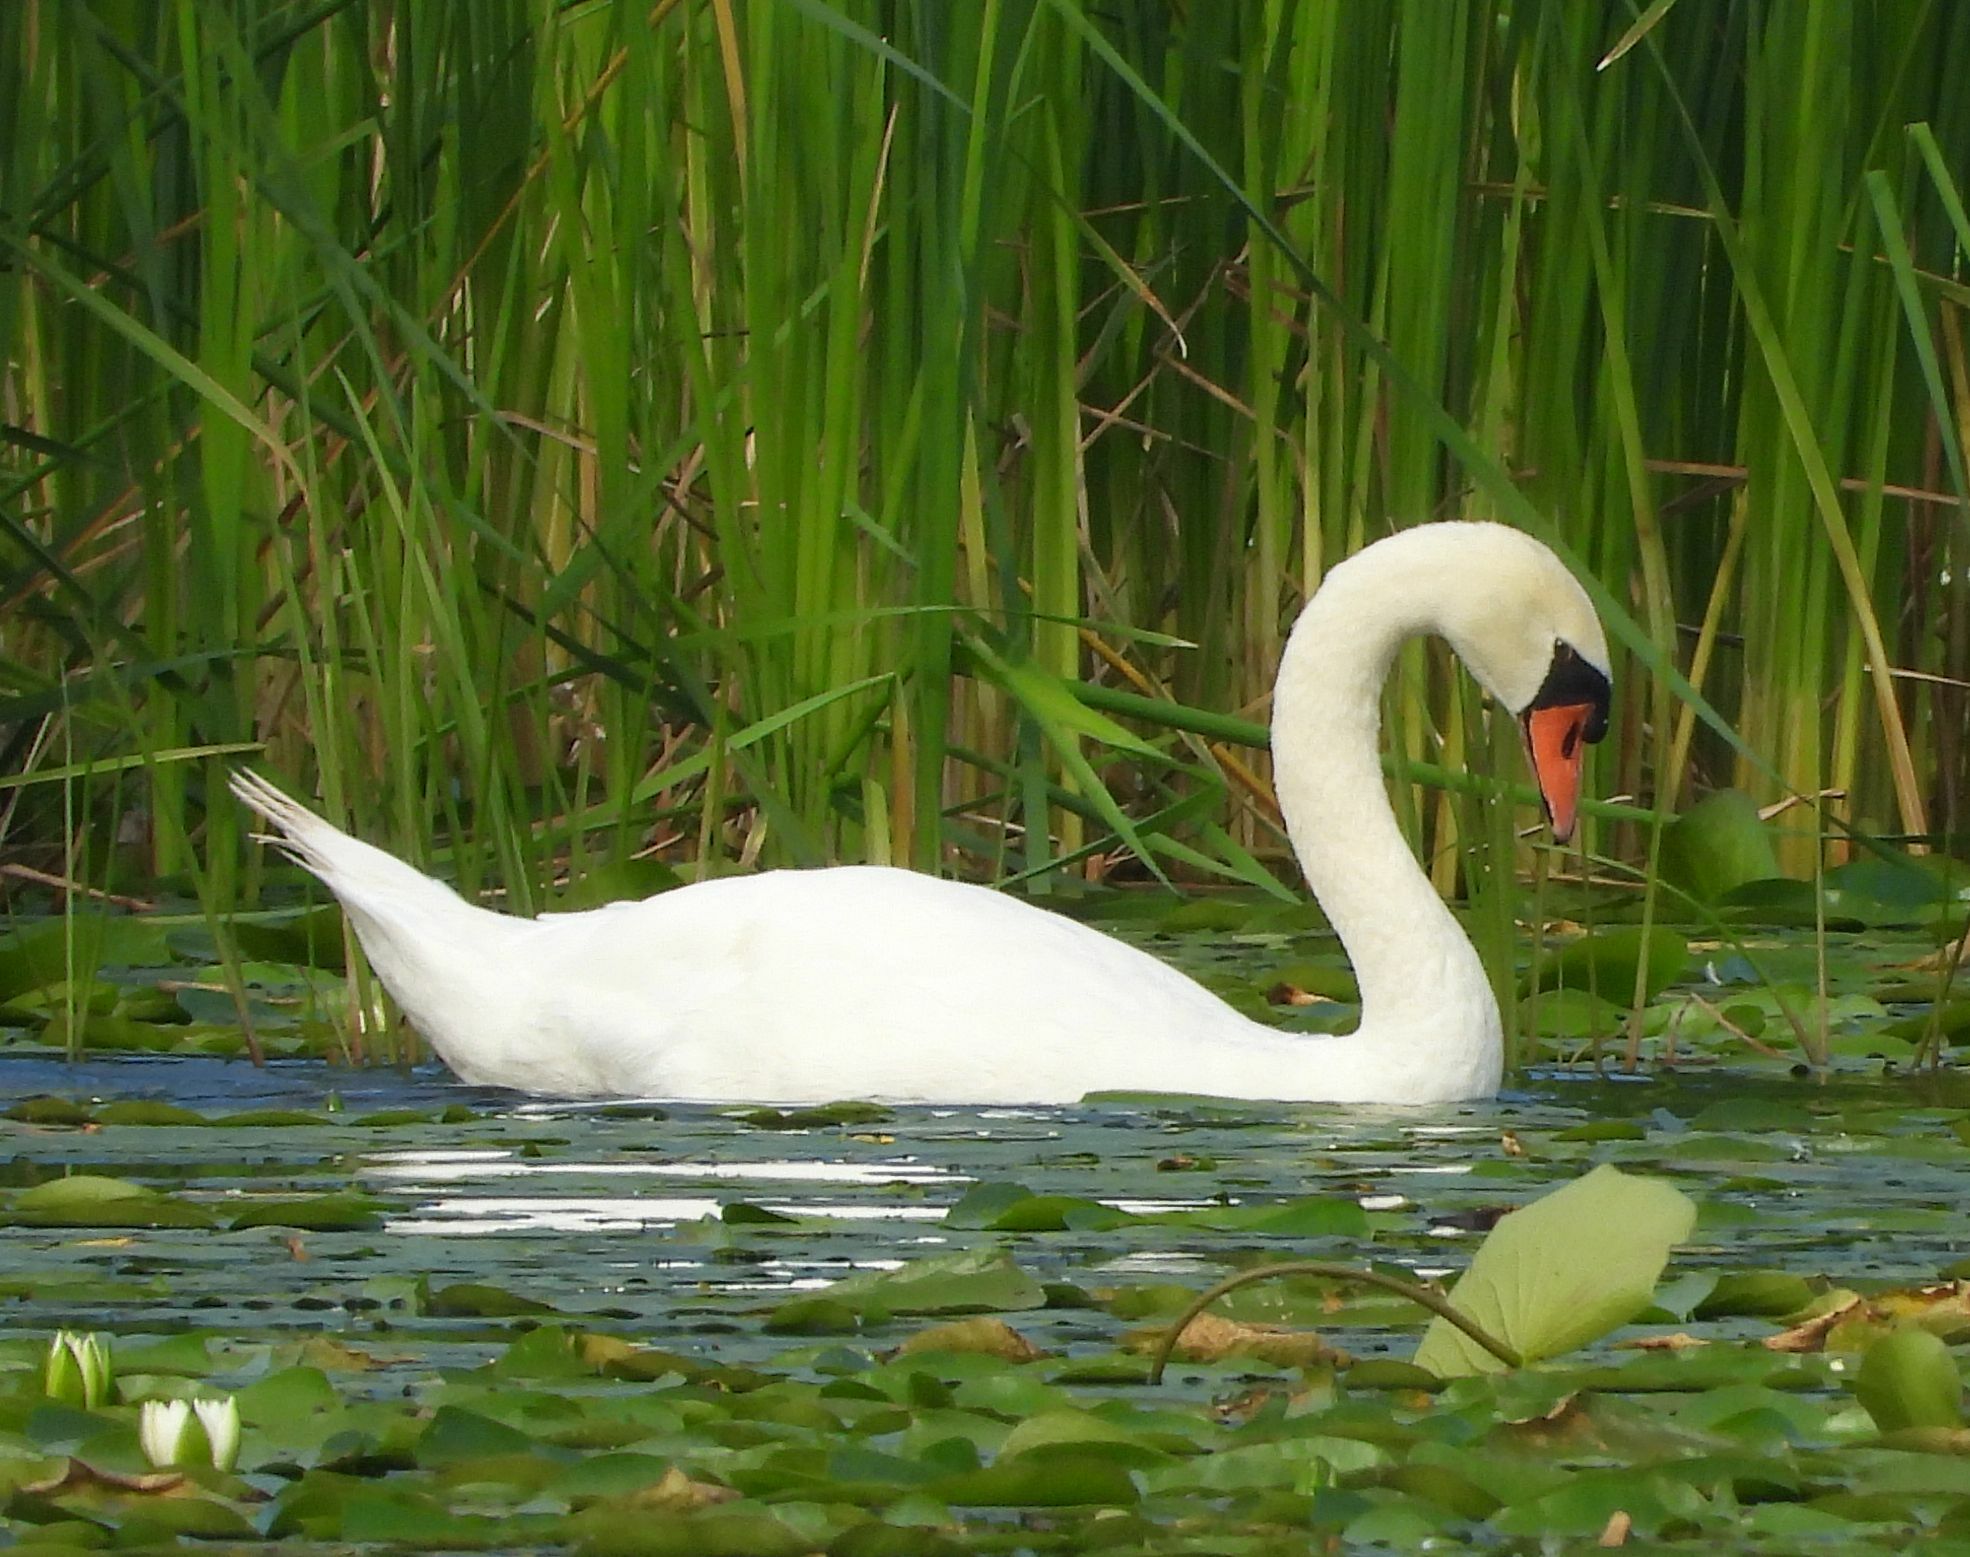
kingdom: Animalia
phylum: Chordata
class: Aves
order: Anseriformes
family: Anatidae
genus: Cygnus
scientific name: Cygnus olor
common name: Mute swan
